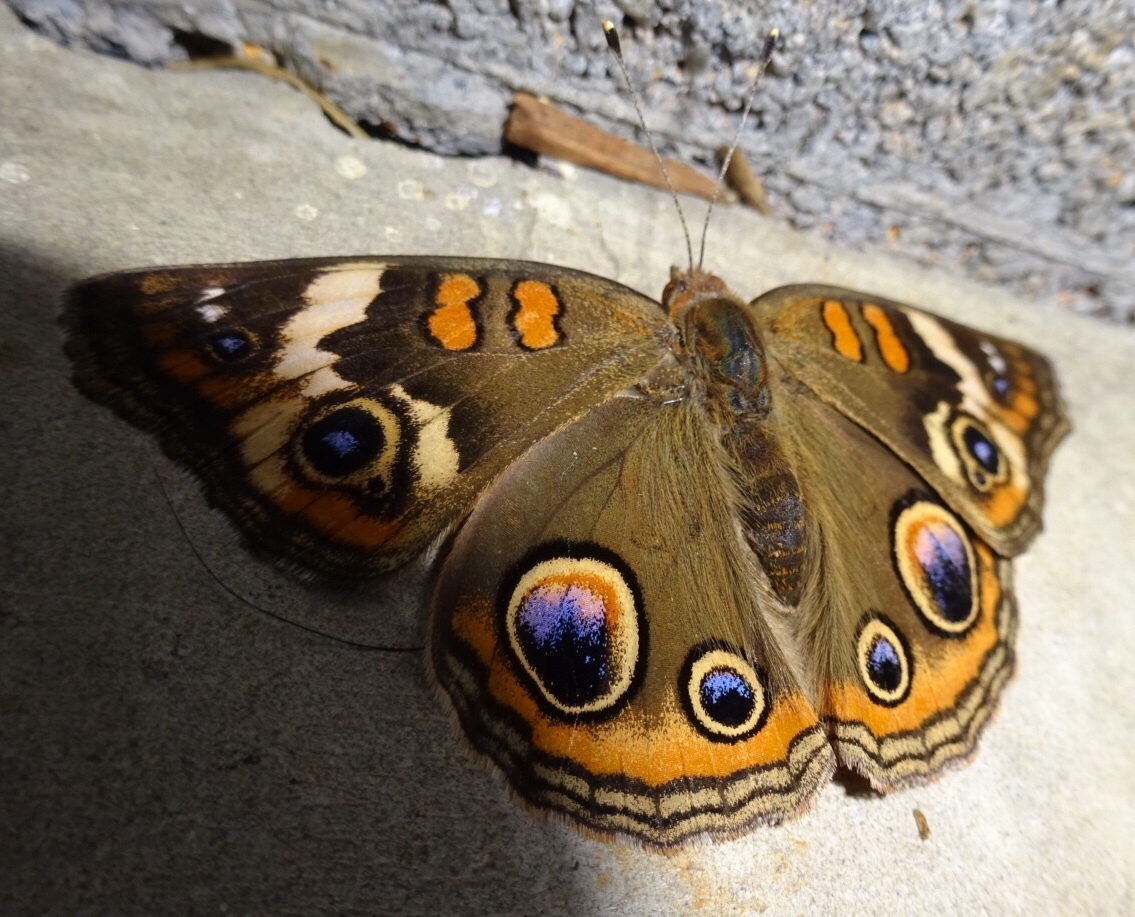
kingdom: Animalia
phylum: Arthropoda
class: Insecta
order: Lepidoptera
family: Nymphalidae
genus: Junonia
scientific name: Junonia coenia
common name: Common buckeye
